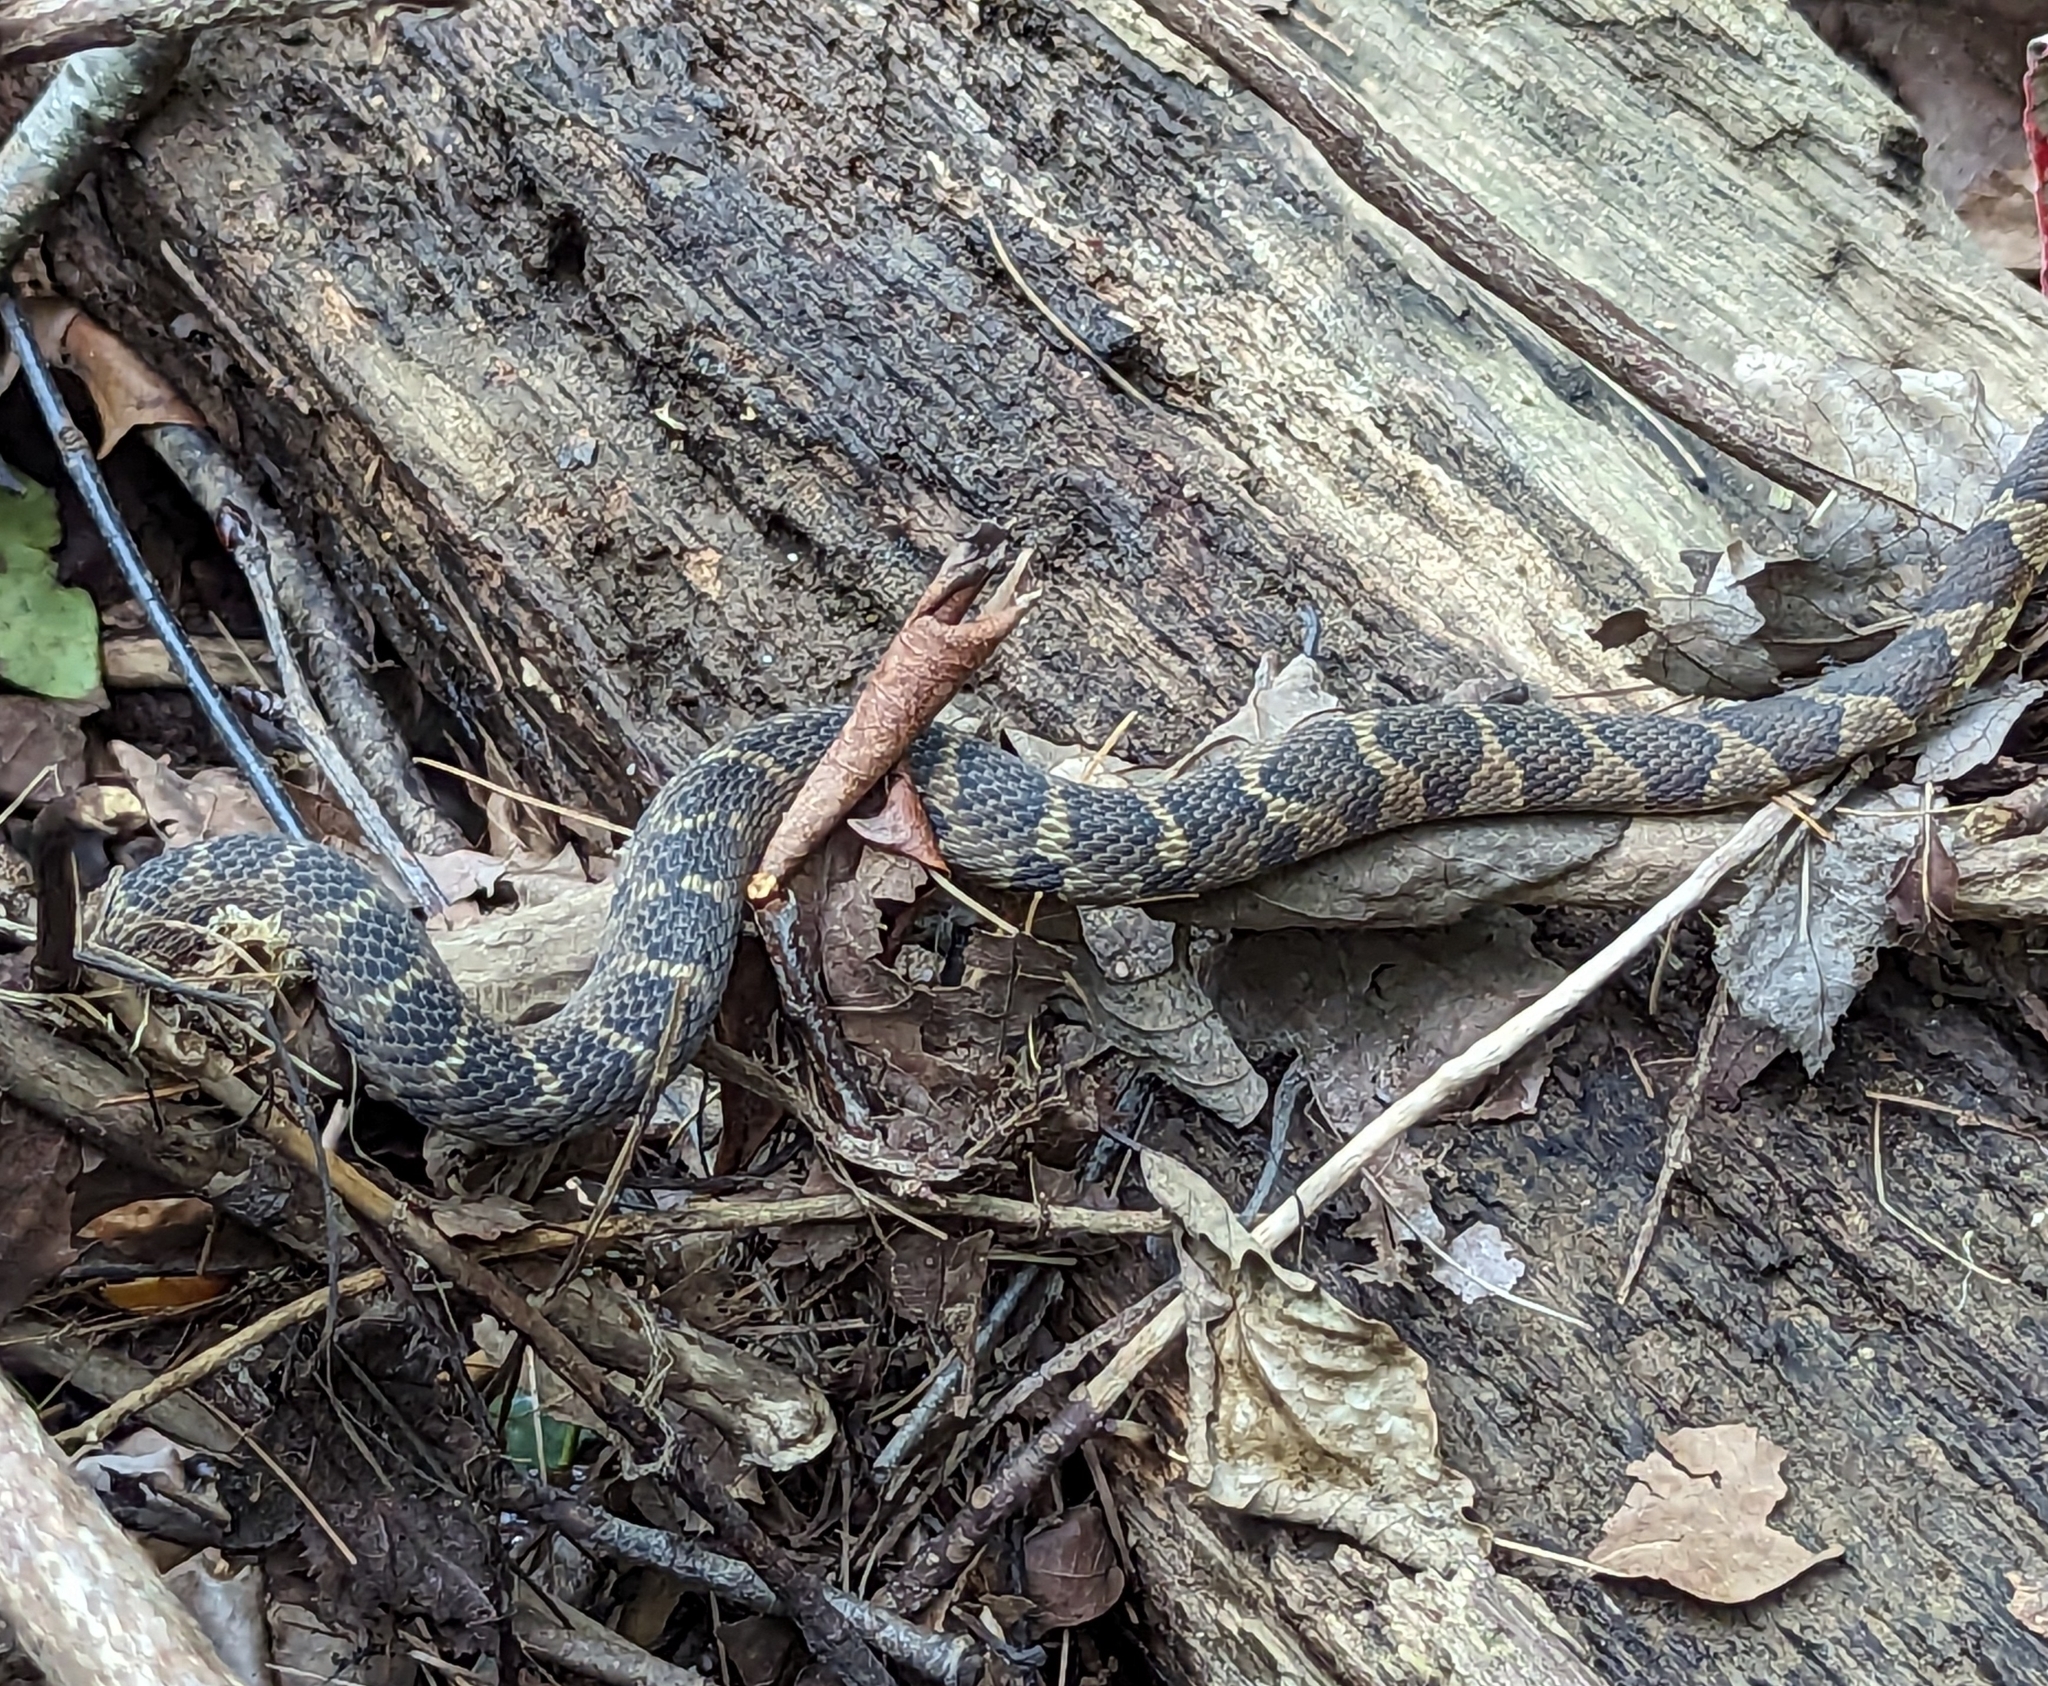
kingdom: Animalia
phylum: Chordata
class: Squamata
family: Colubridae
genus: Nerodia
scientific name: Nerodia sipedon
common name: Northern water snake
